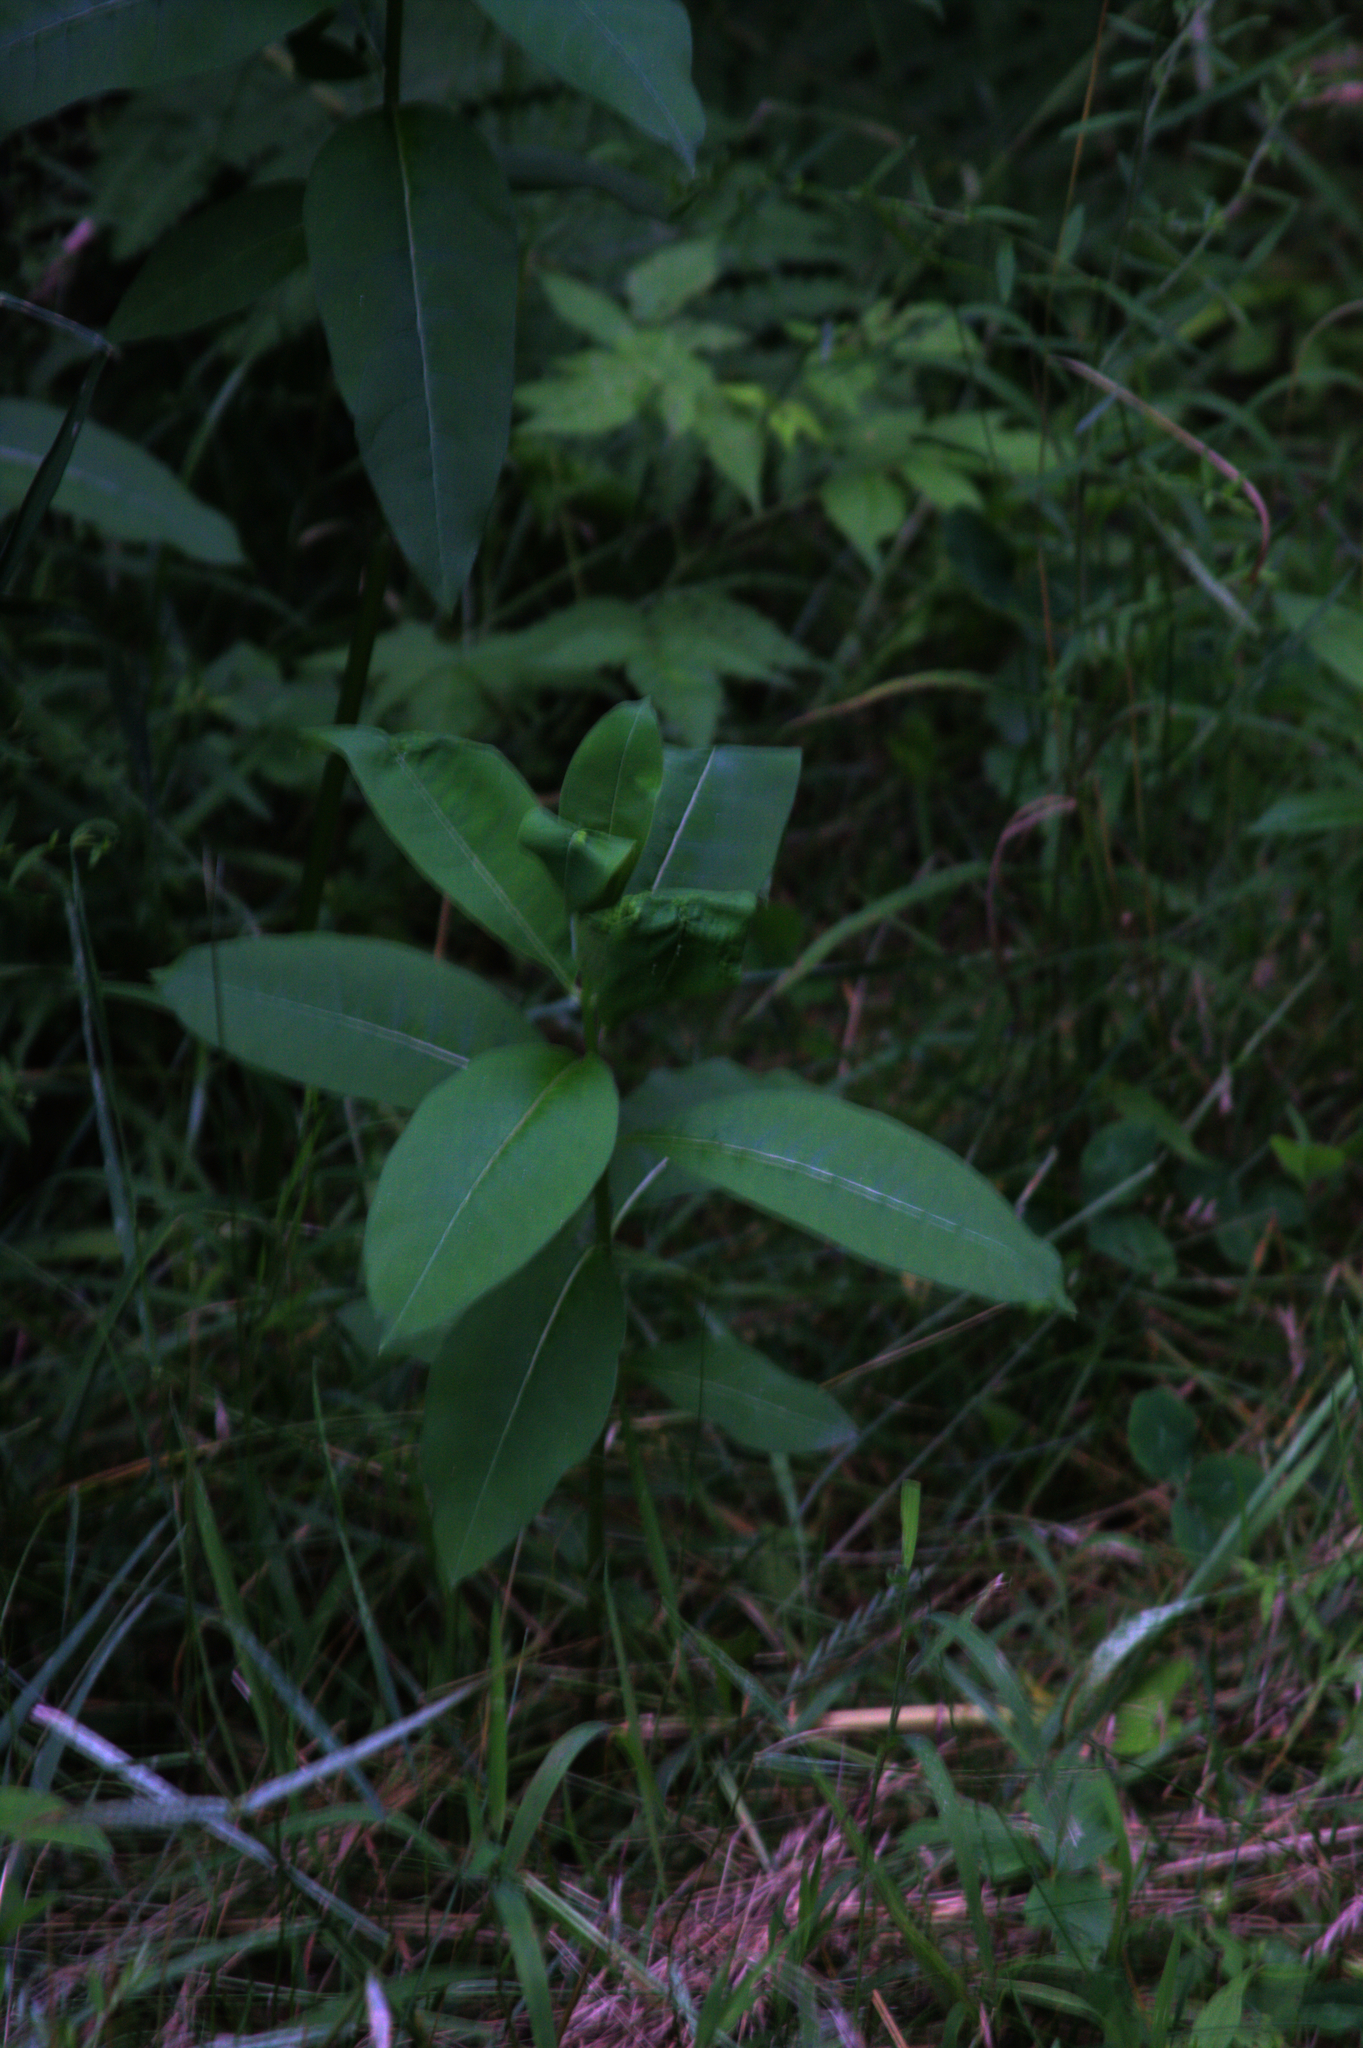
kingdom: Plantae
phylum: Tracheophyta
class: Magnoliopsida
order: Gentianales
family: Apocynaceae
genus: Asclepias
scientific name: Asclepias syriaca
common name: Common milkweed
